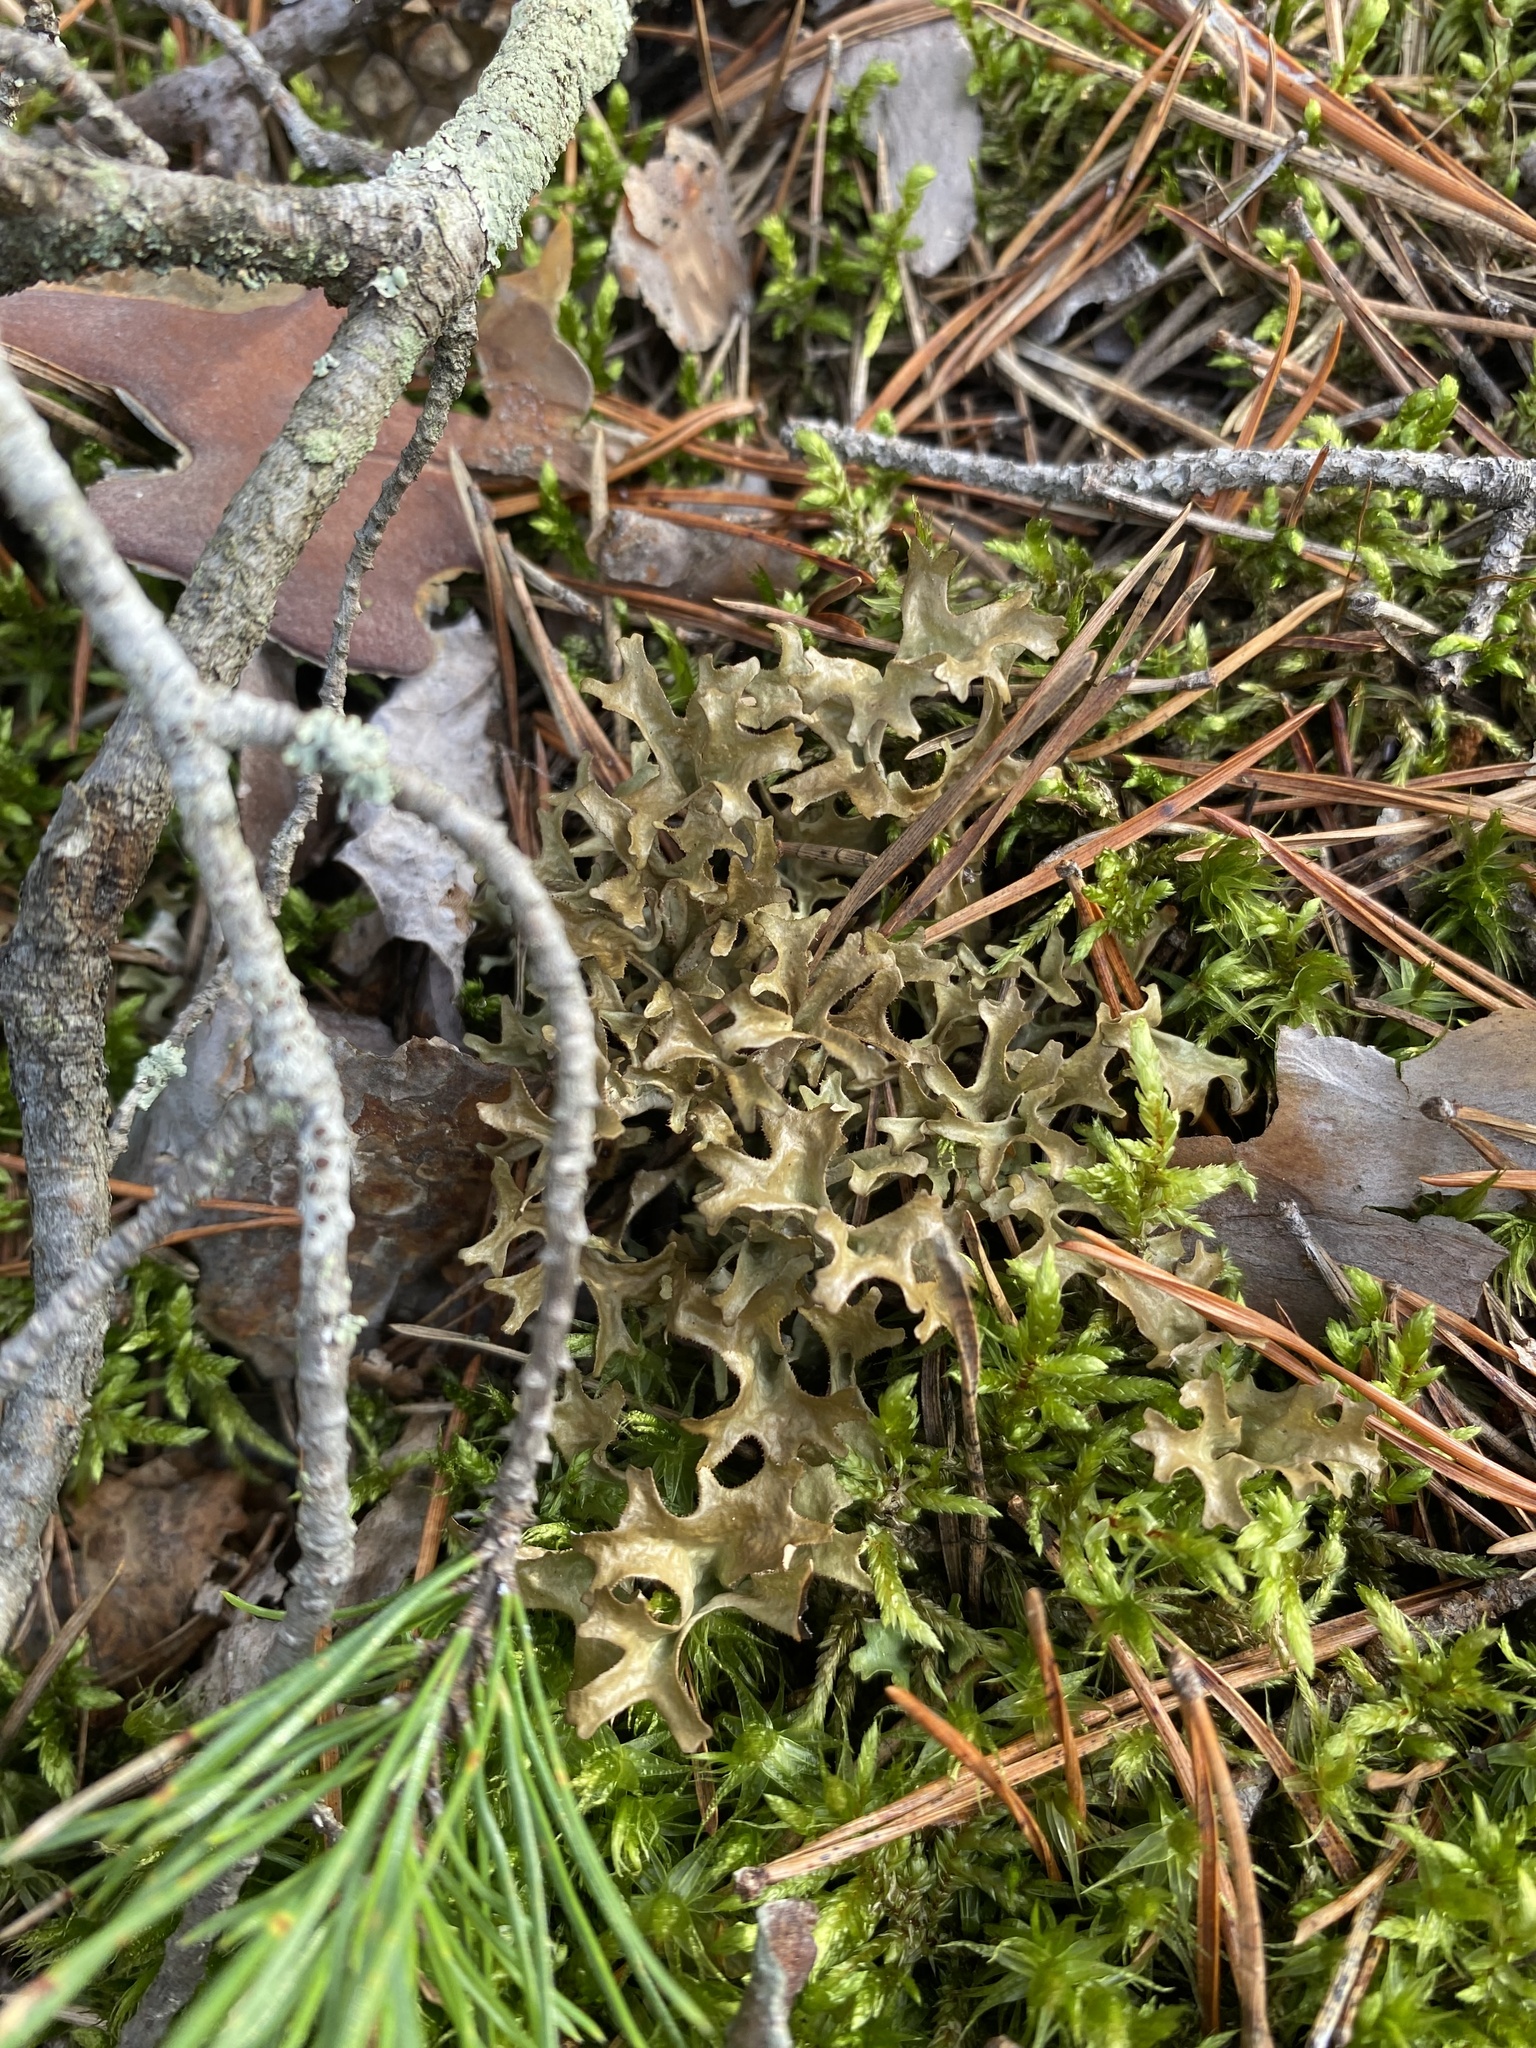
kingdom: Fungi
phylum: Ascomycota
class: Lecanoromycetes
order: Lecanorales
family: Parmeliaceae
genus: Cetraria
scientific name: Cetraria islandica
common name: Iceland lichen
